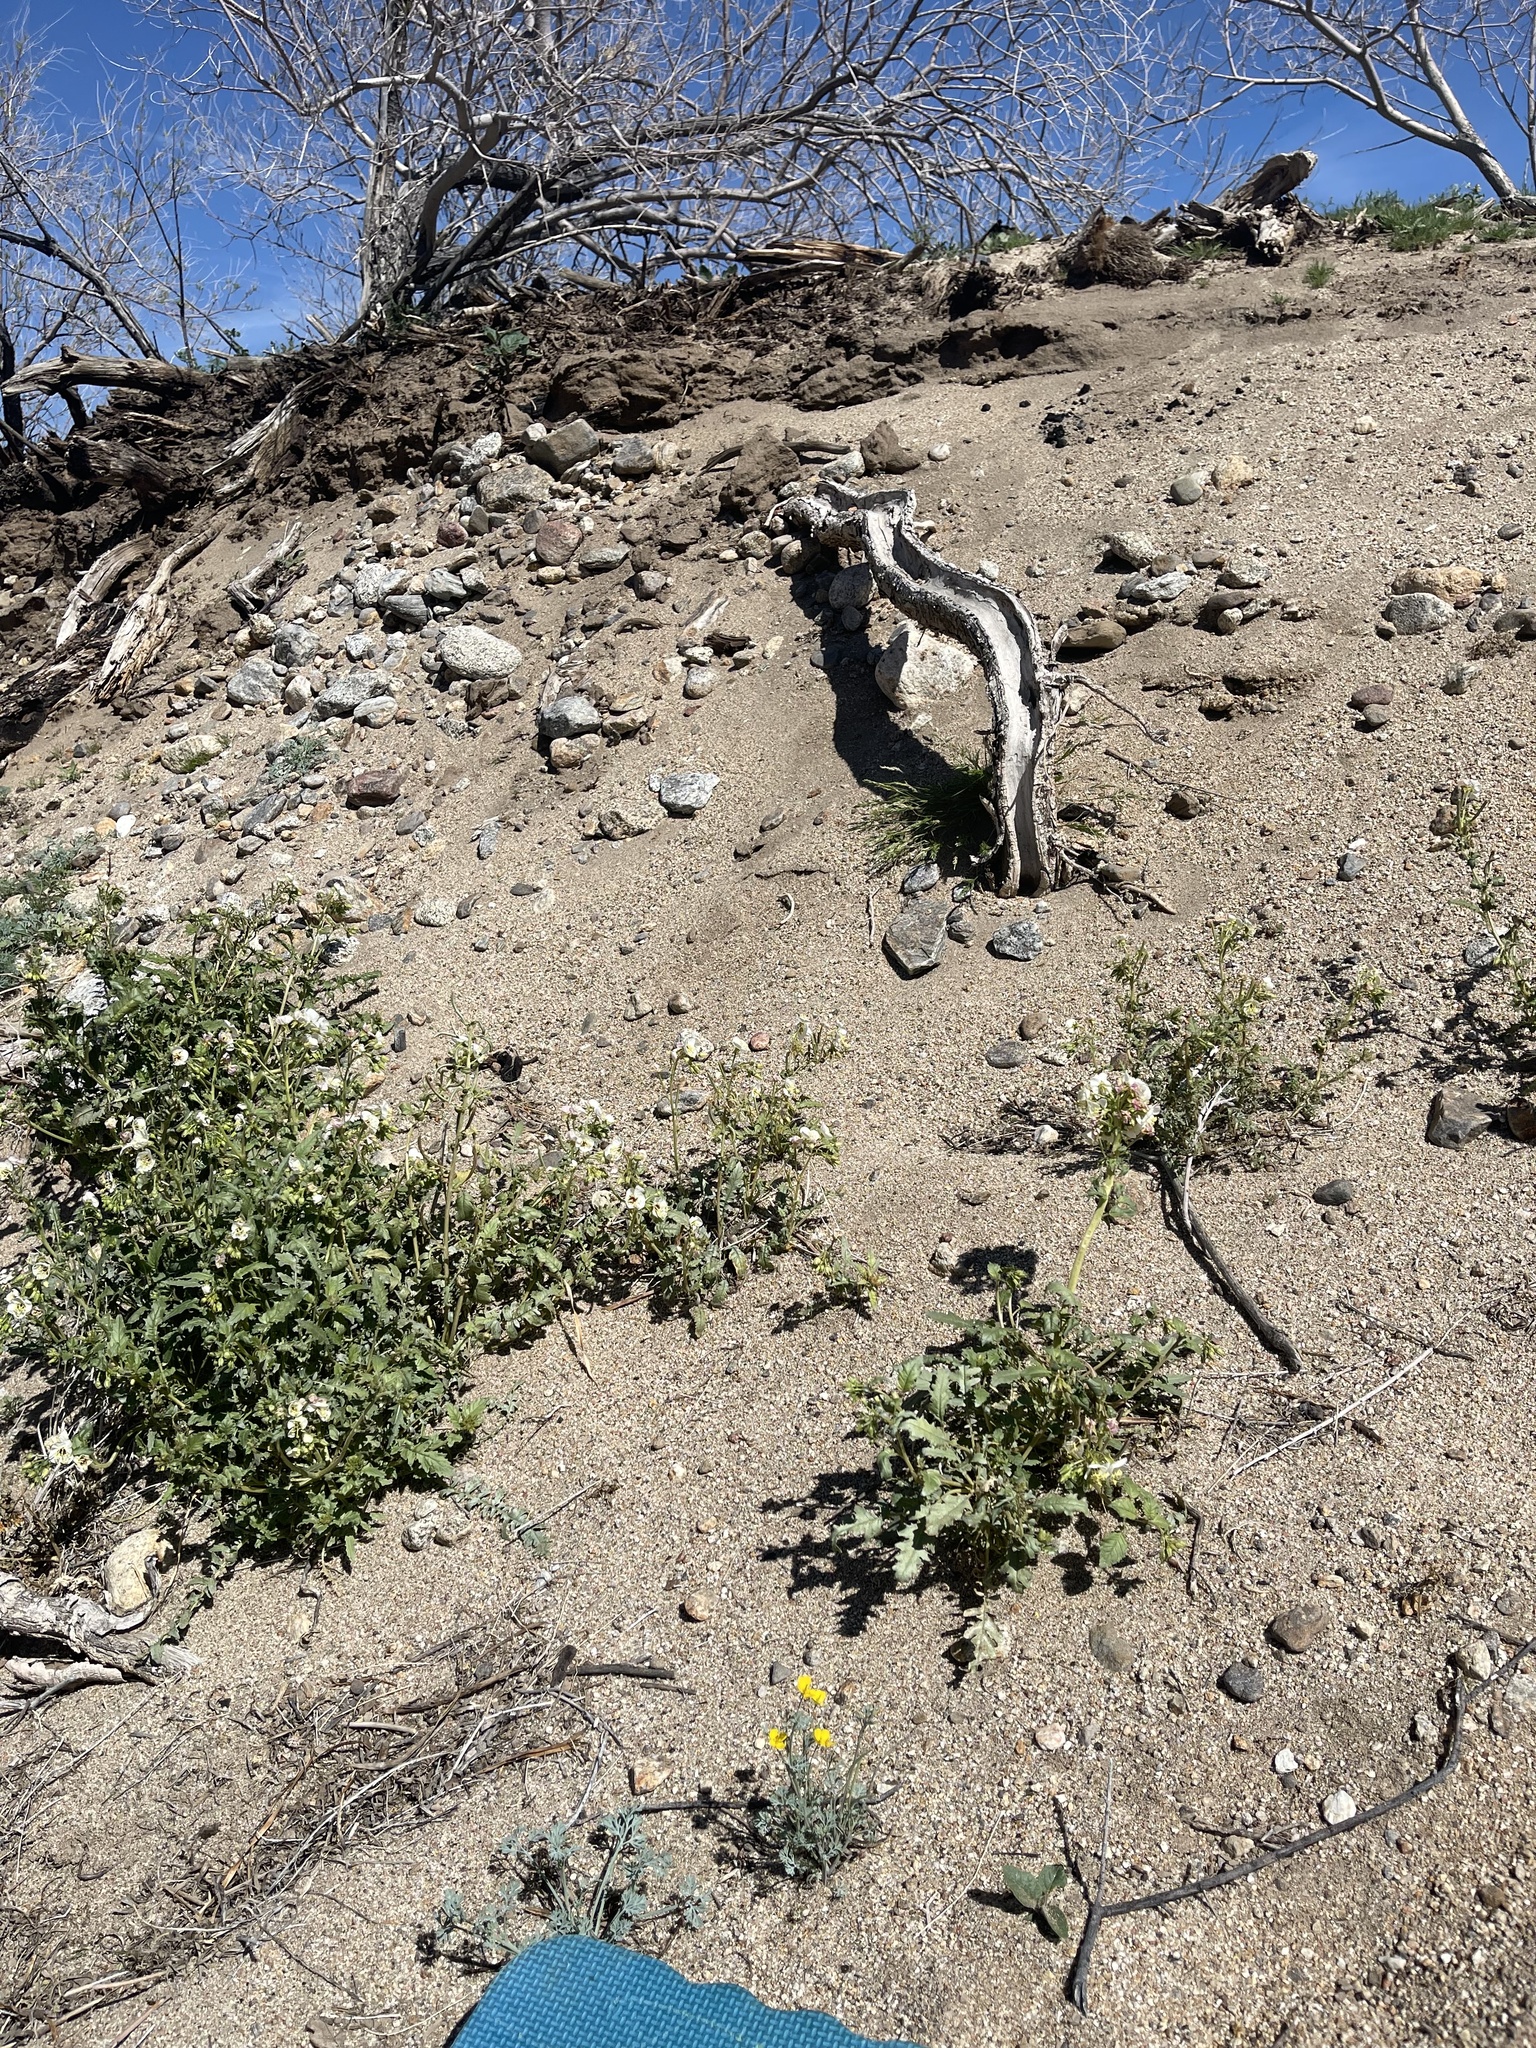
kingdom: Plantae
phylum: Tracheophyta
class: Magnoliopsida
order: Ranunculales
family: Papaveraceae
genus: Eschscholzia
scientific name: Eschscholzia minutiflora
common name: Small-flower california-poppy
